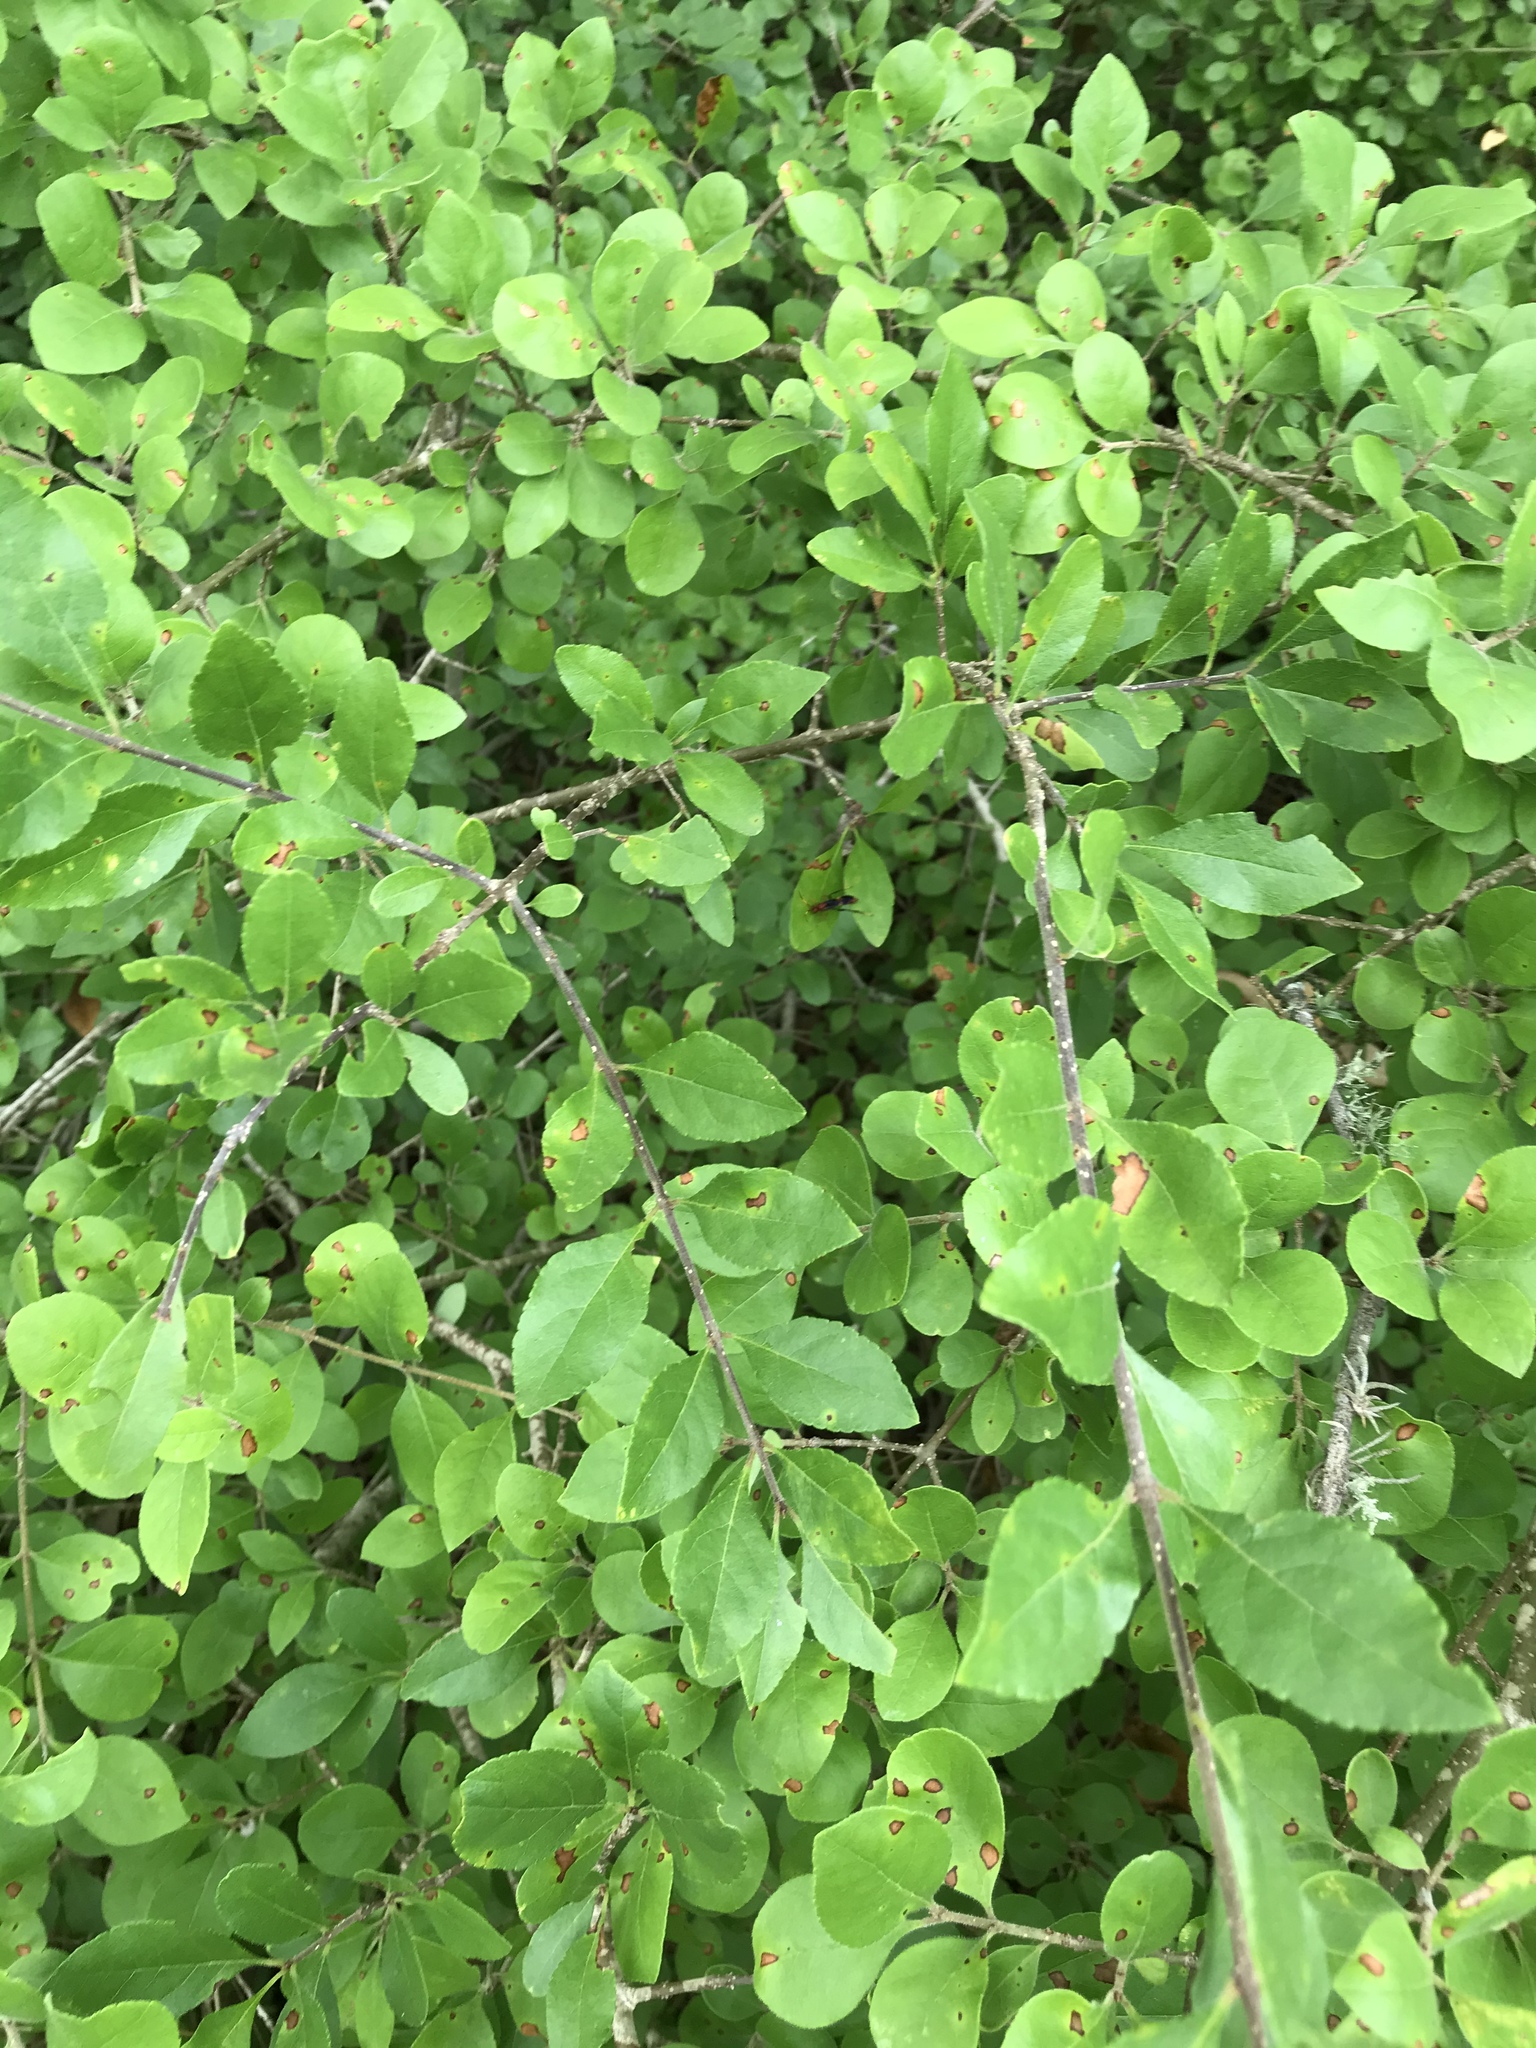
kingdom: Plantae
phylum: Tracheophyta
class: Magnoliopsida
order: Lamiales
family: Oleaceae
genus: Forestiera
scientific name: Forestiera pubescens
